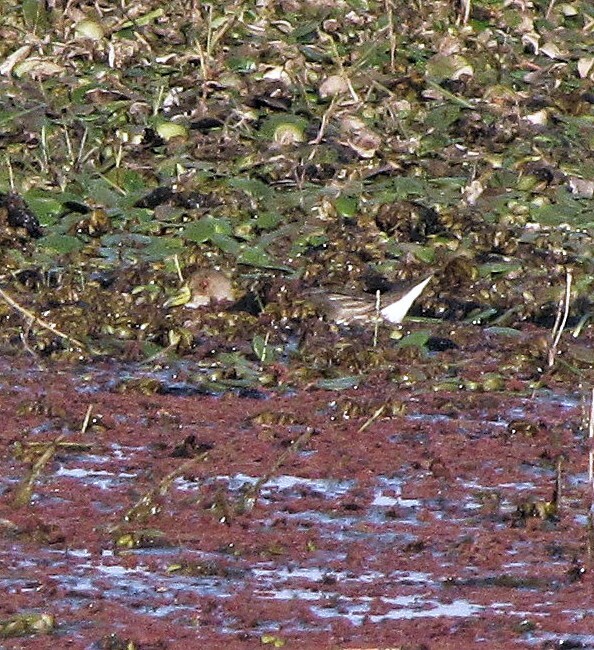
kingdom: Animalia
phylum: Chordata
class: Aves
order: Gruiformes
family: Rallidae
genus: Gallinula
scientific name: Gallinula melanops
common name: Spot-flanked gallinule
